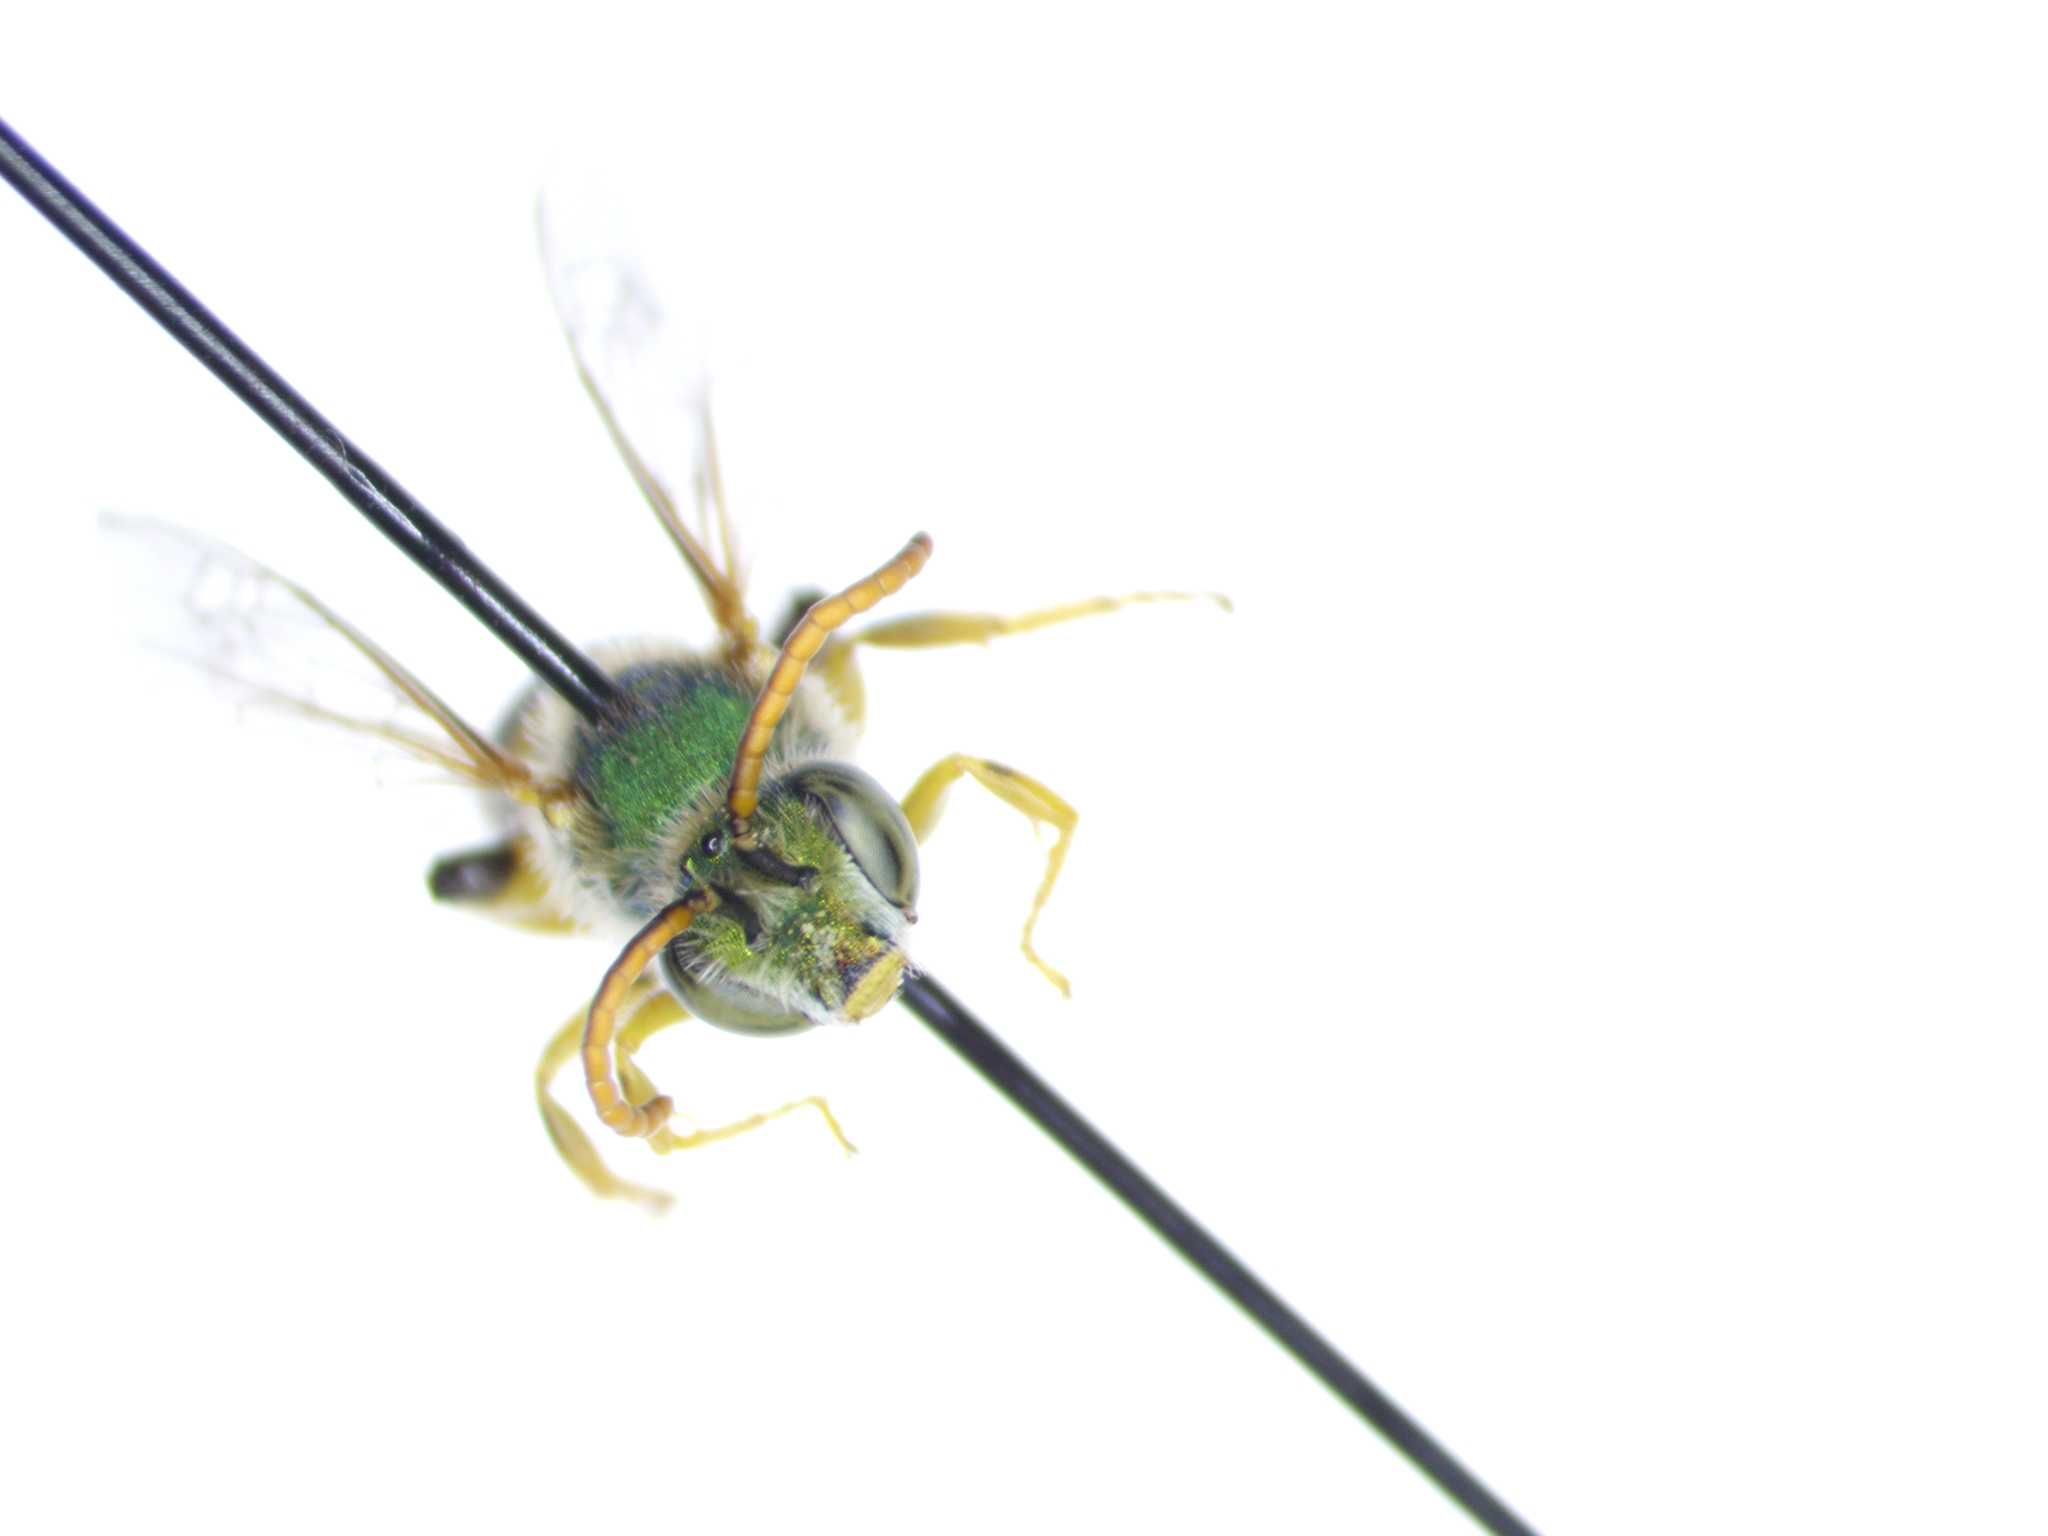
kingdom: Animalia
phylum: Arthropoda
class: Insecta
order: Hymenoptera
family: Halictidae
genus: Agapostemon
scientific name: Agapostemon texanus
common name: Texas striped sweat bee
